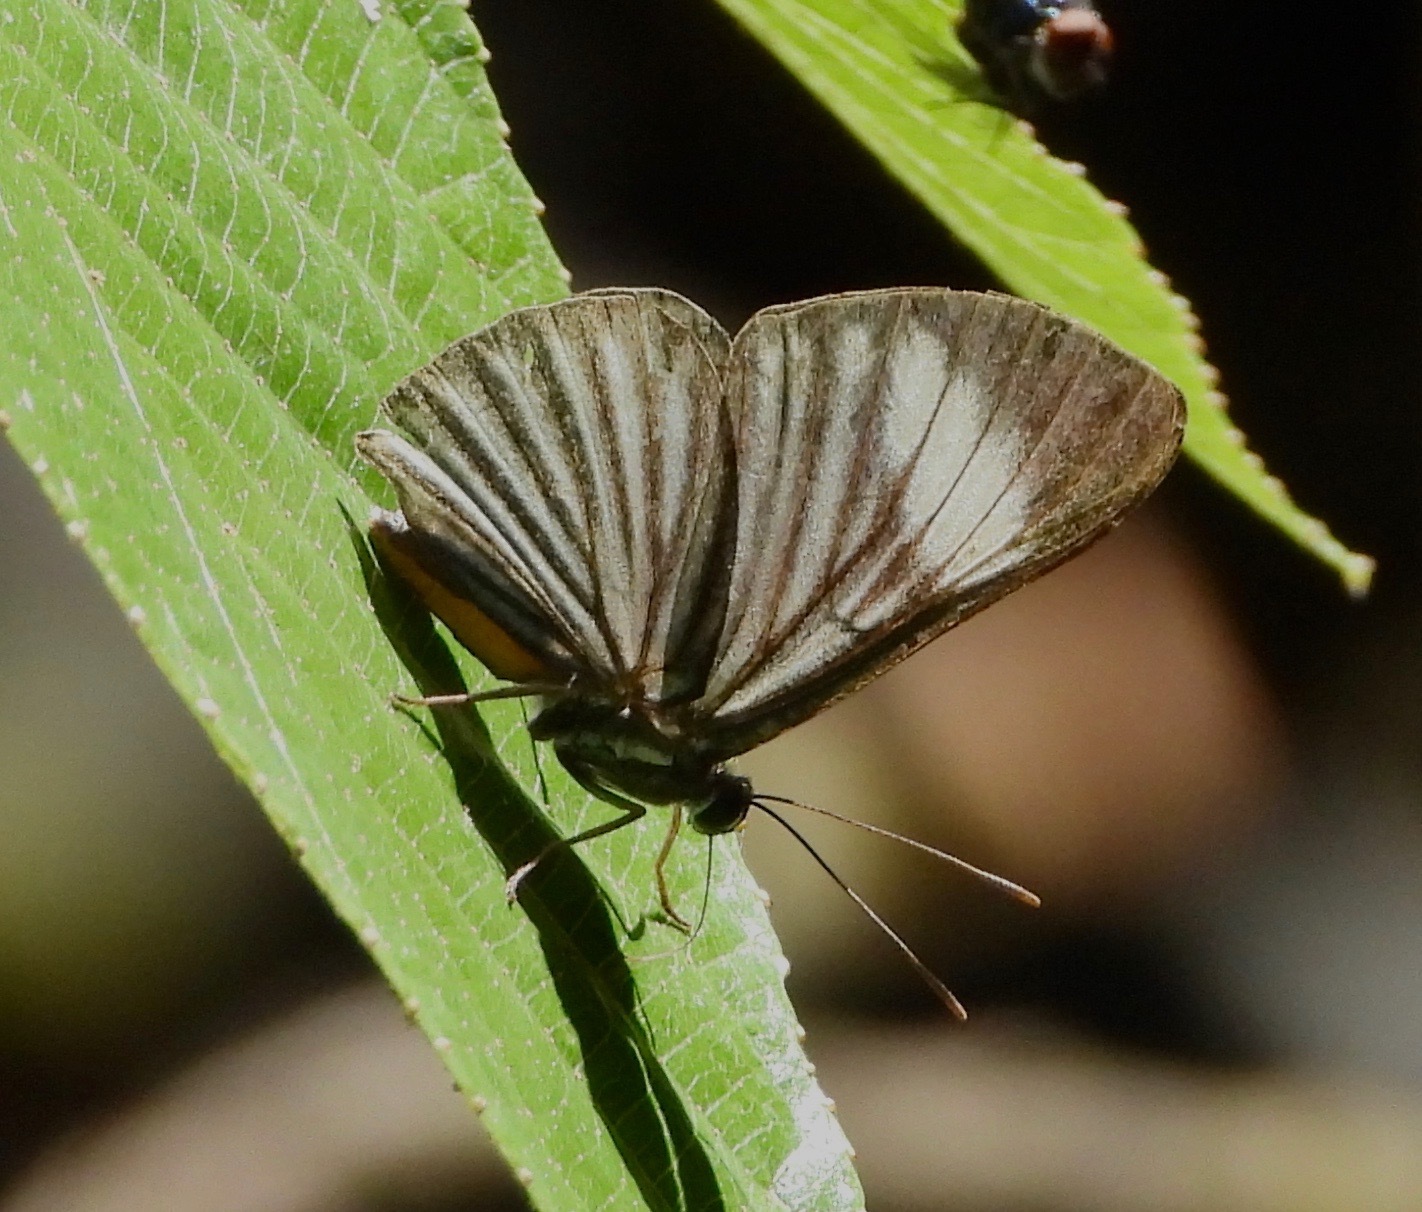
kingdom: Animalia
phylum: Arthropoda
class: Insecta
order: Lepidoptera
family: Riodinidae
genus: Brachyglenis
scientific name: Brachyglenis esthema
